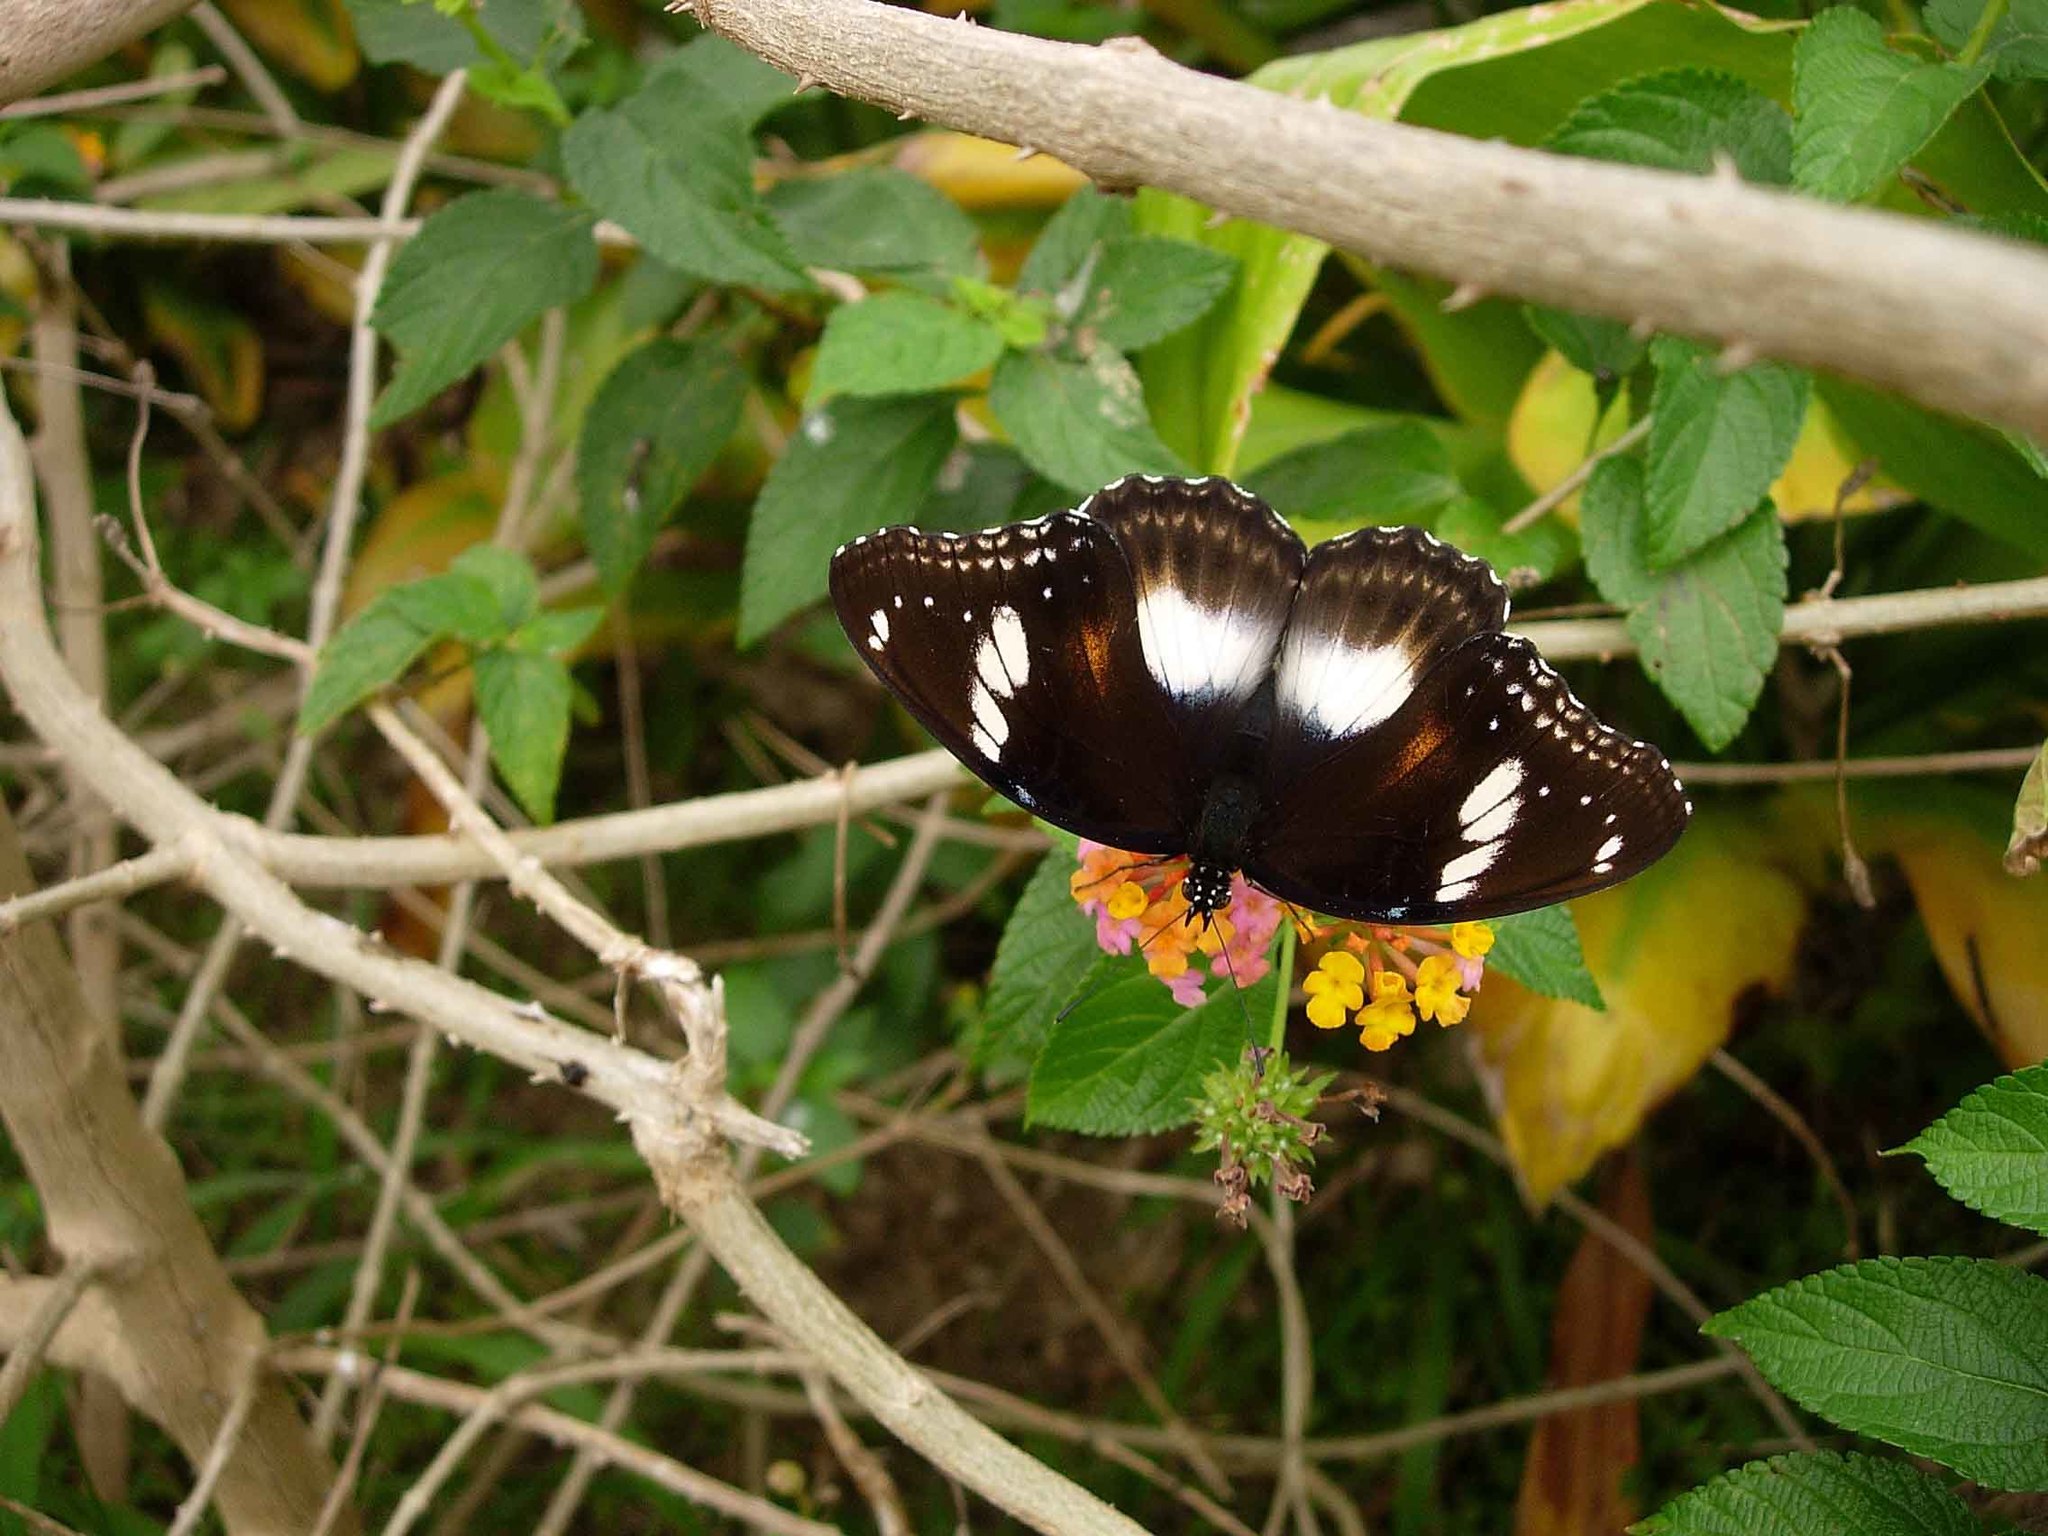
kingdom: Animalia
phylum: Arthropoda
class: Insecta
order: Lepidoptera
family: Nymphalidae
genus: Hypolimnas
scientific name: Hypolimnas bolina
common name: Great eggfly
